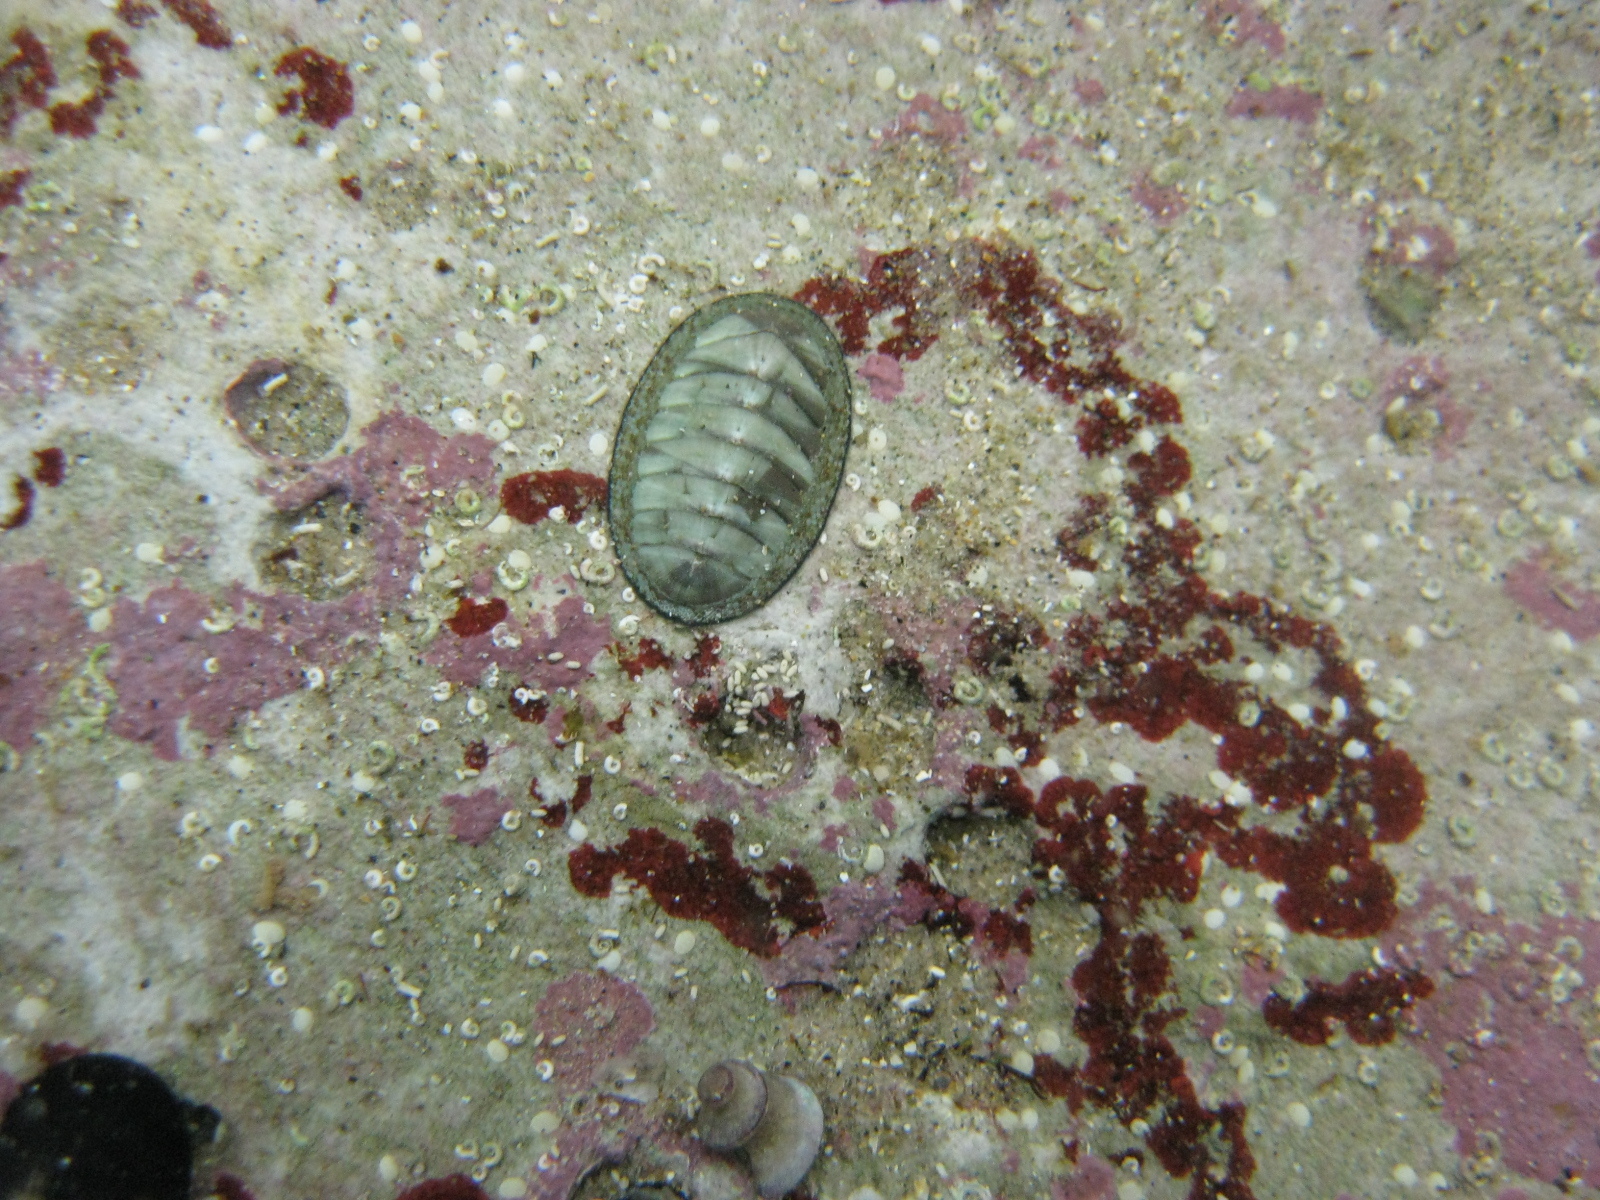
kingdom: Animalia
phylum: Mollusca
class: Polyplacophora
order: Chitonida
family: Chitonidae
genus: Chiton
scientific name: Chiton glaucus
